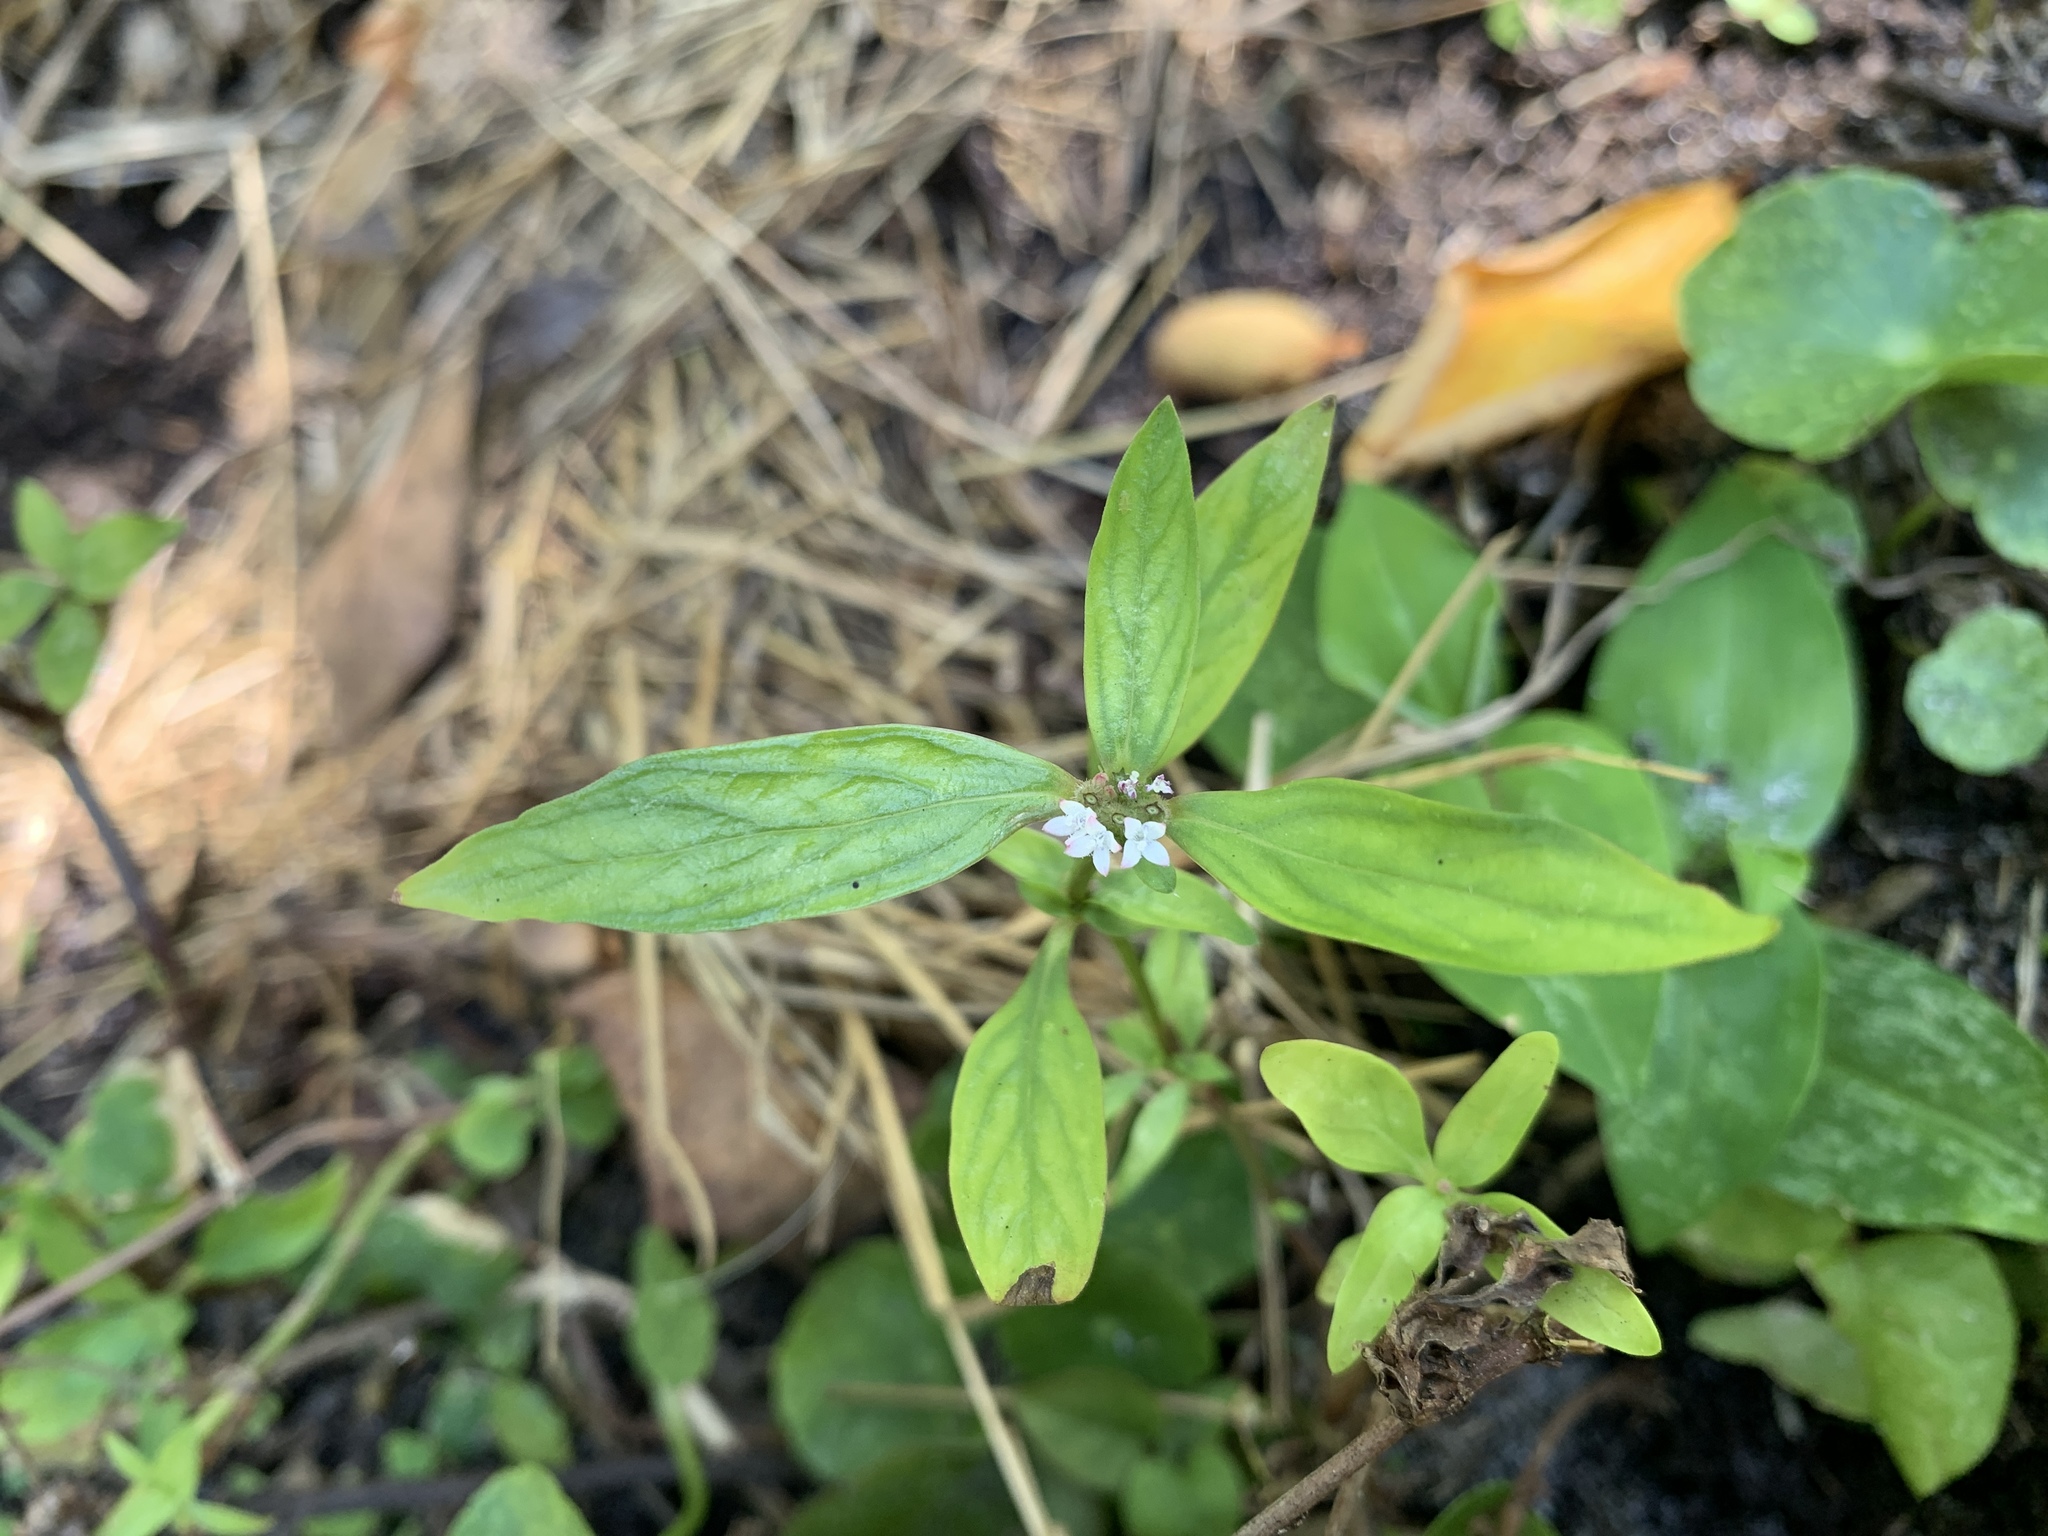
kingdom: Plantae
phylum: Tracheophyta
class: Magnoliopsida
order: Gentianales
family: Rubiaceae
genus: Spermacoce
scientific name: Spermacoce remota
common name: Woodland false buttonweed
